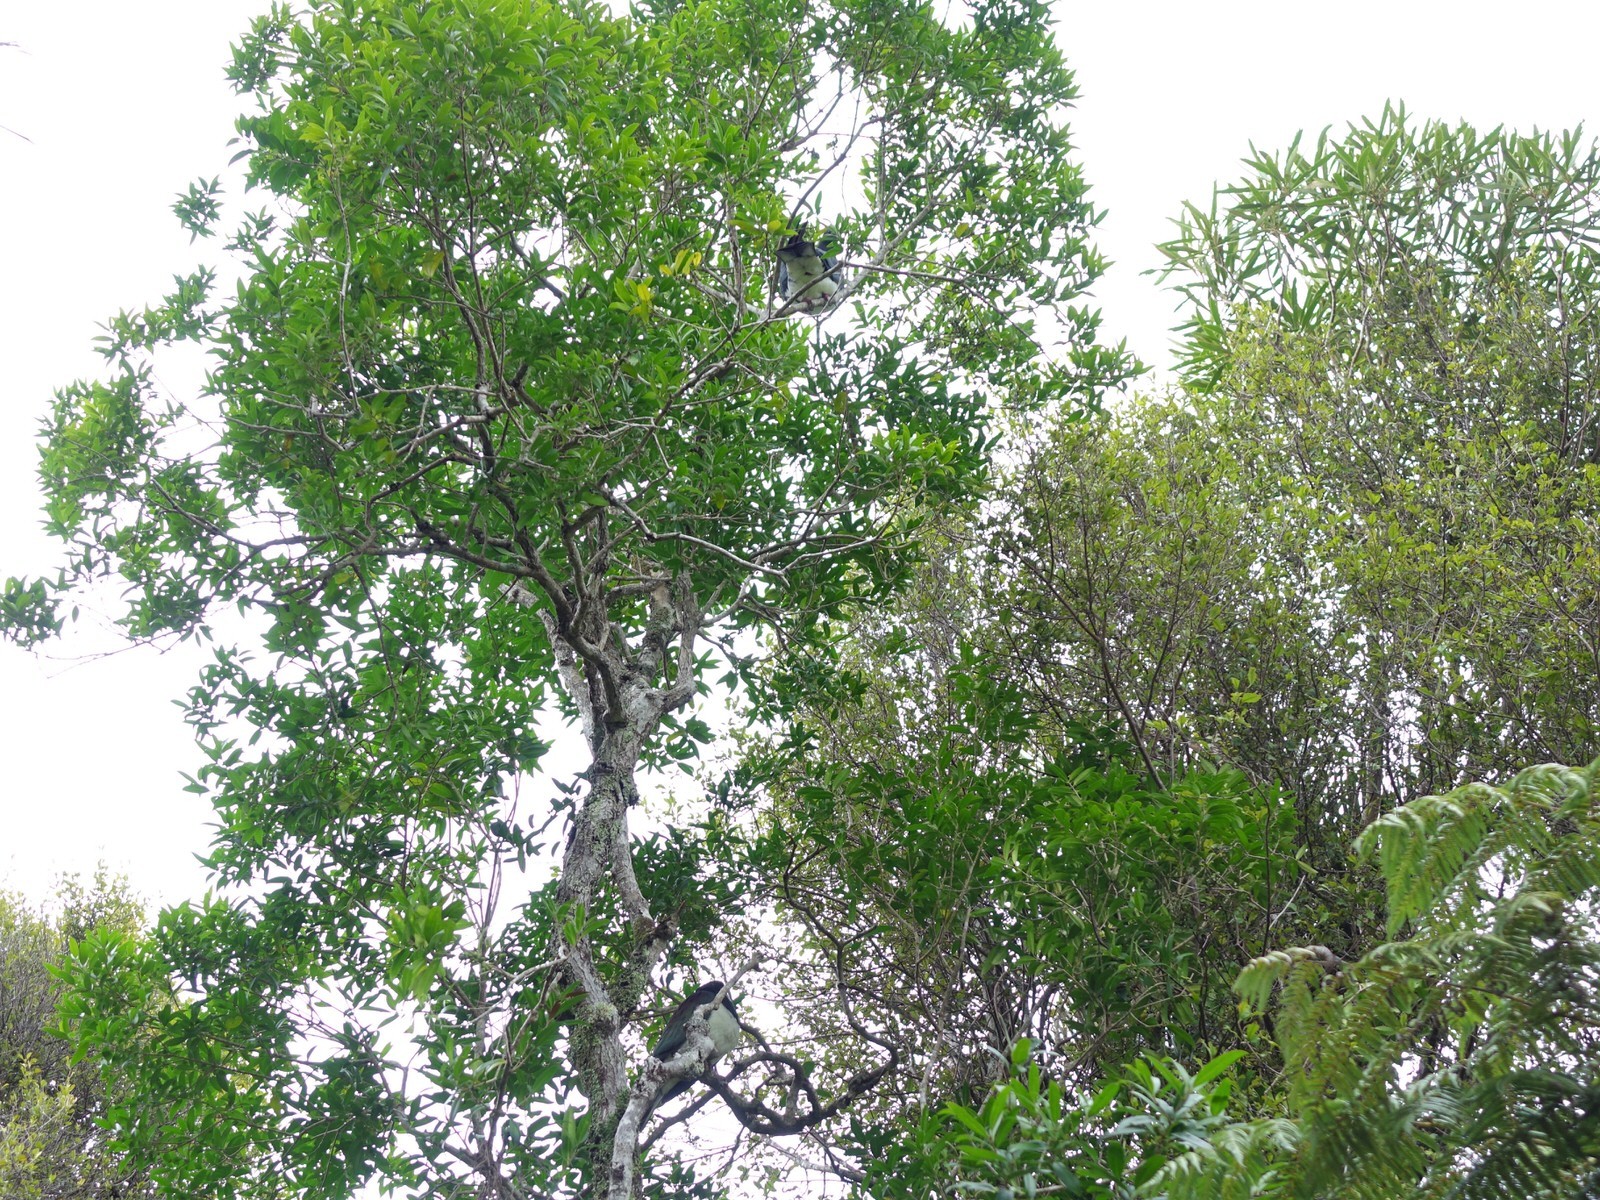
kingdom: Animalia
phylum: Chordata
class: Aves
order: Columbiformes
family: Columbidae
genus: Hemiphaga
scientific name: Hemiphaga novaeseelandiae
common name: New zealand pigeon
